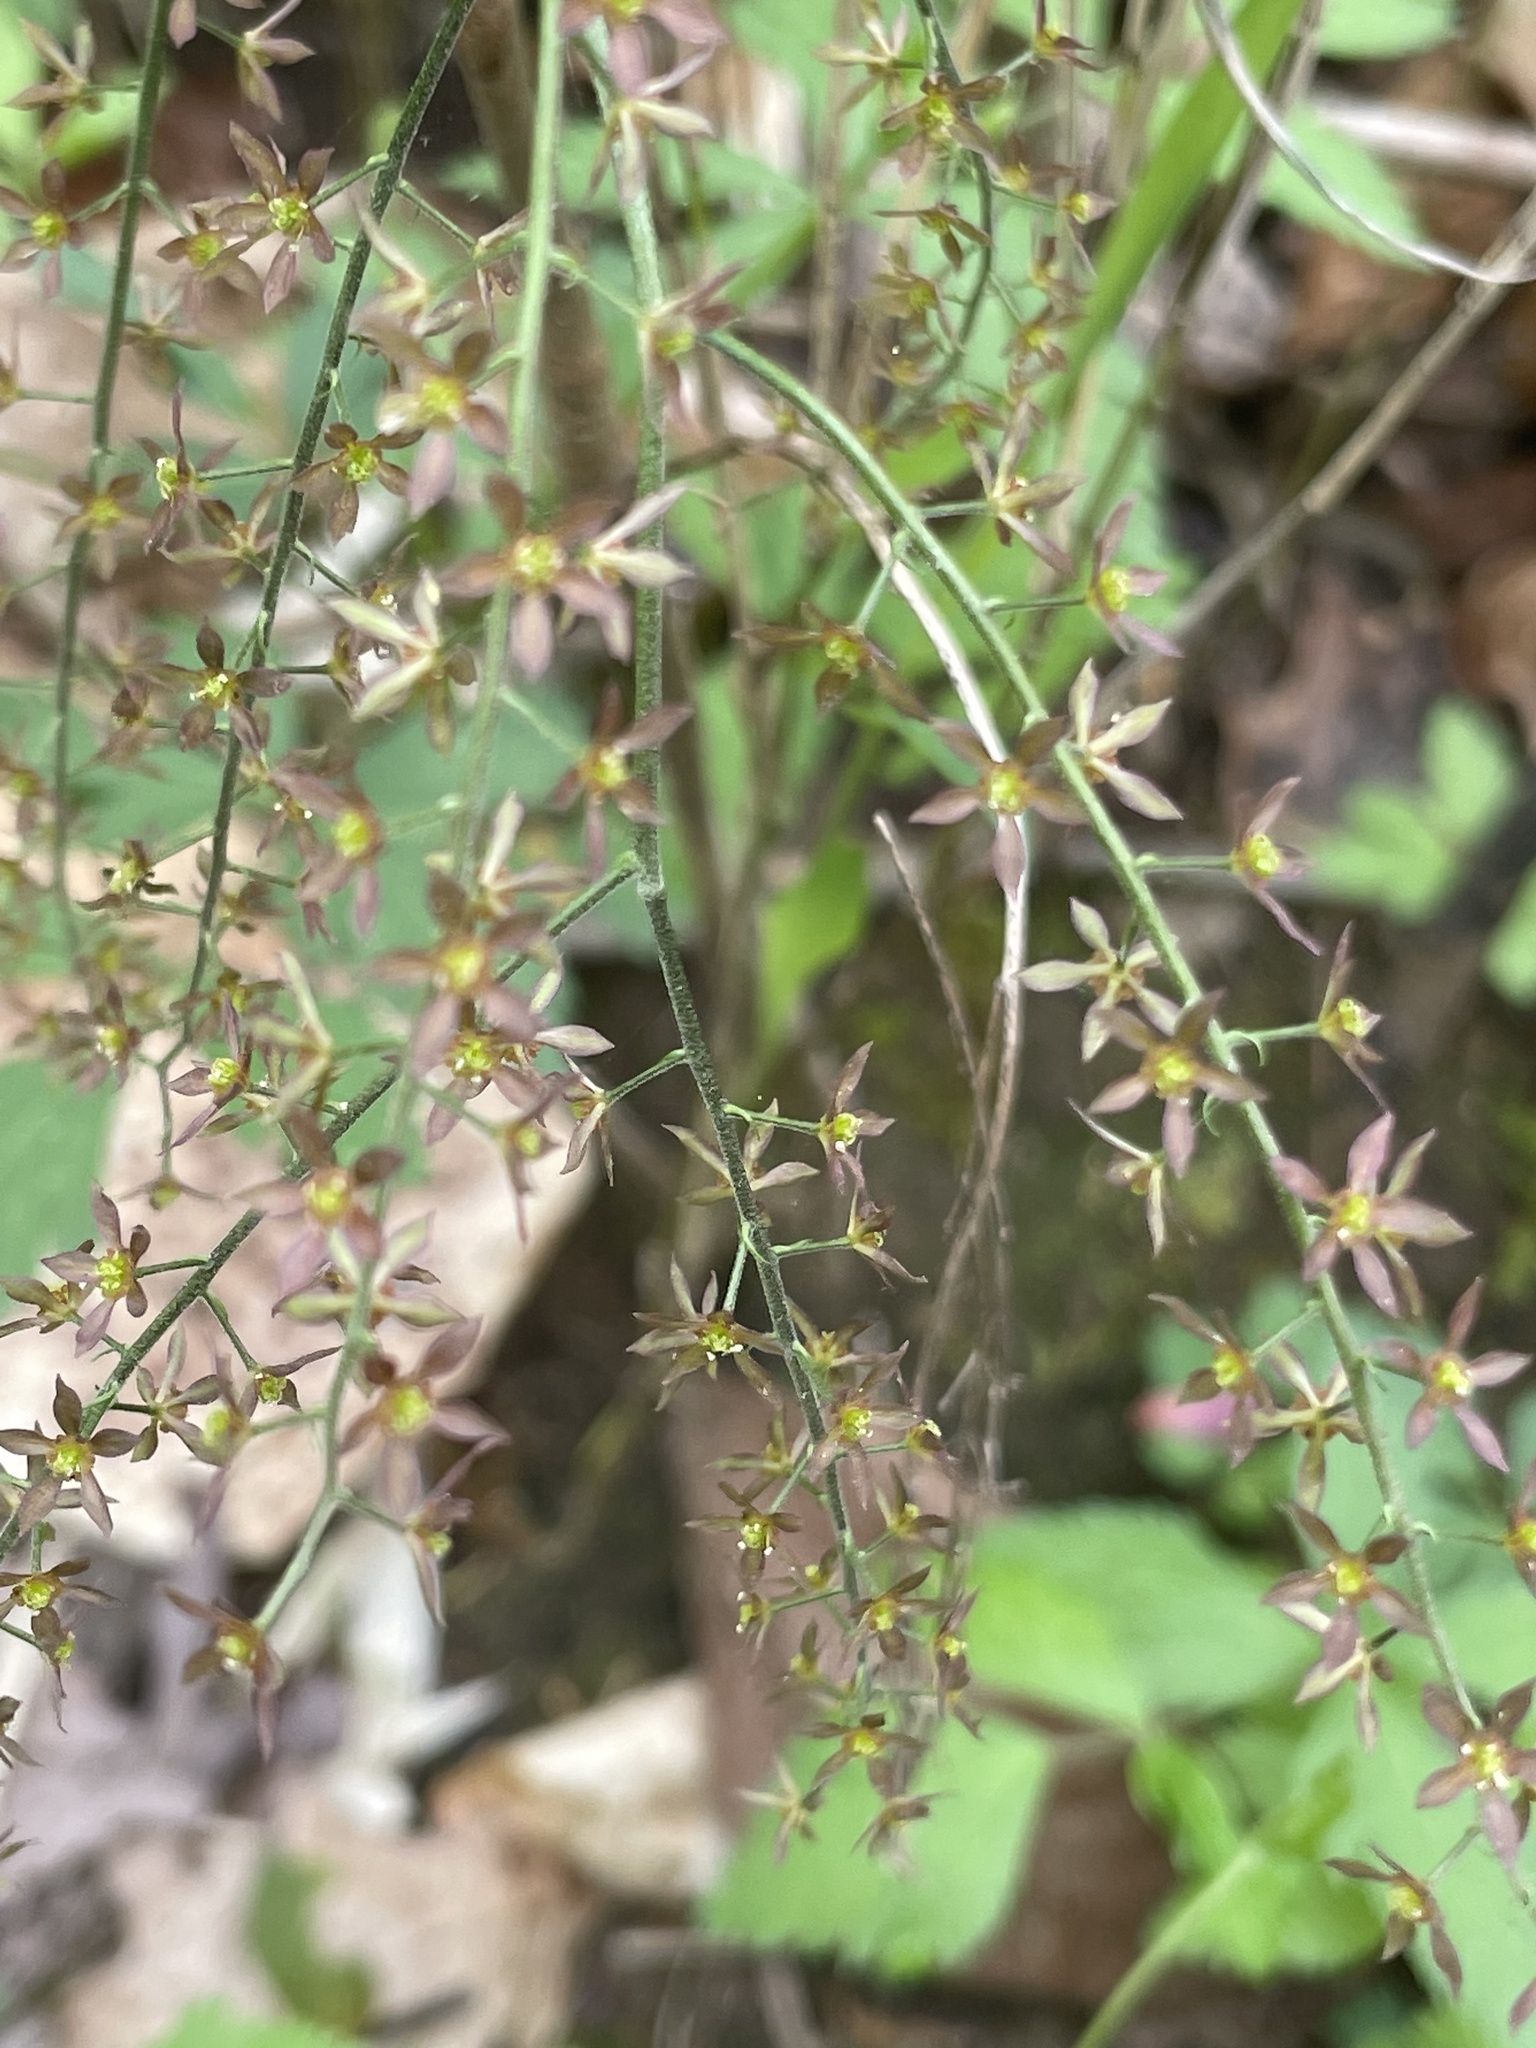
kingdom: Plantae
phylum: Tracheophyta
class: Magnoliopsida
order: Ranunculales
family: Ranunculaceae
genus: Xanthorhiza
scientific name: Xanthorhiza simplicissima
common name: Yellowroot
